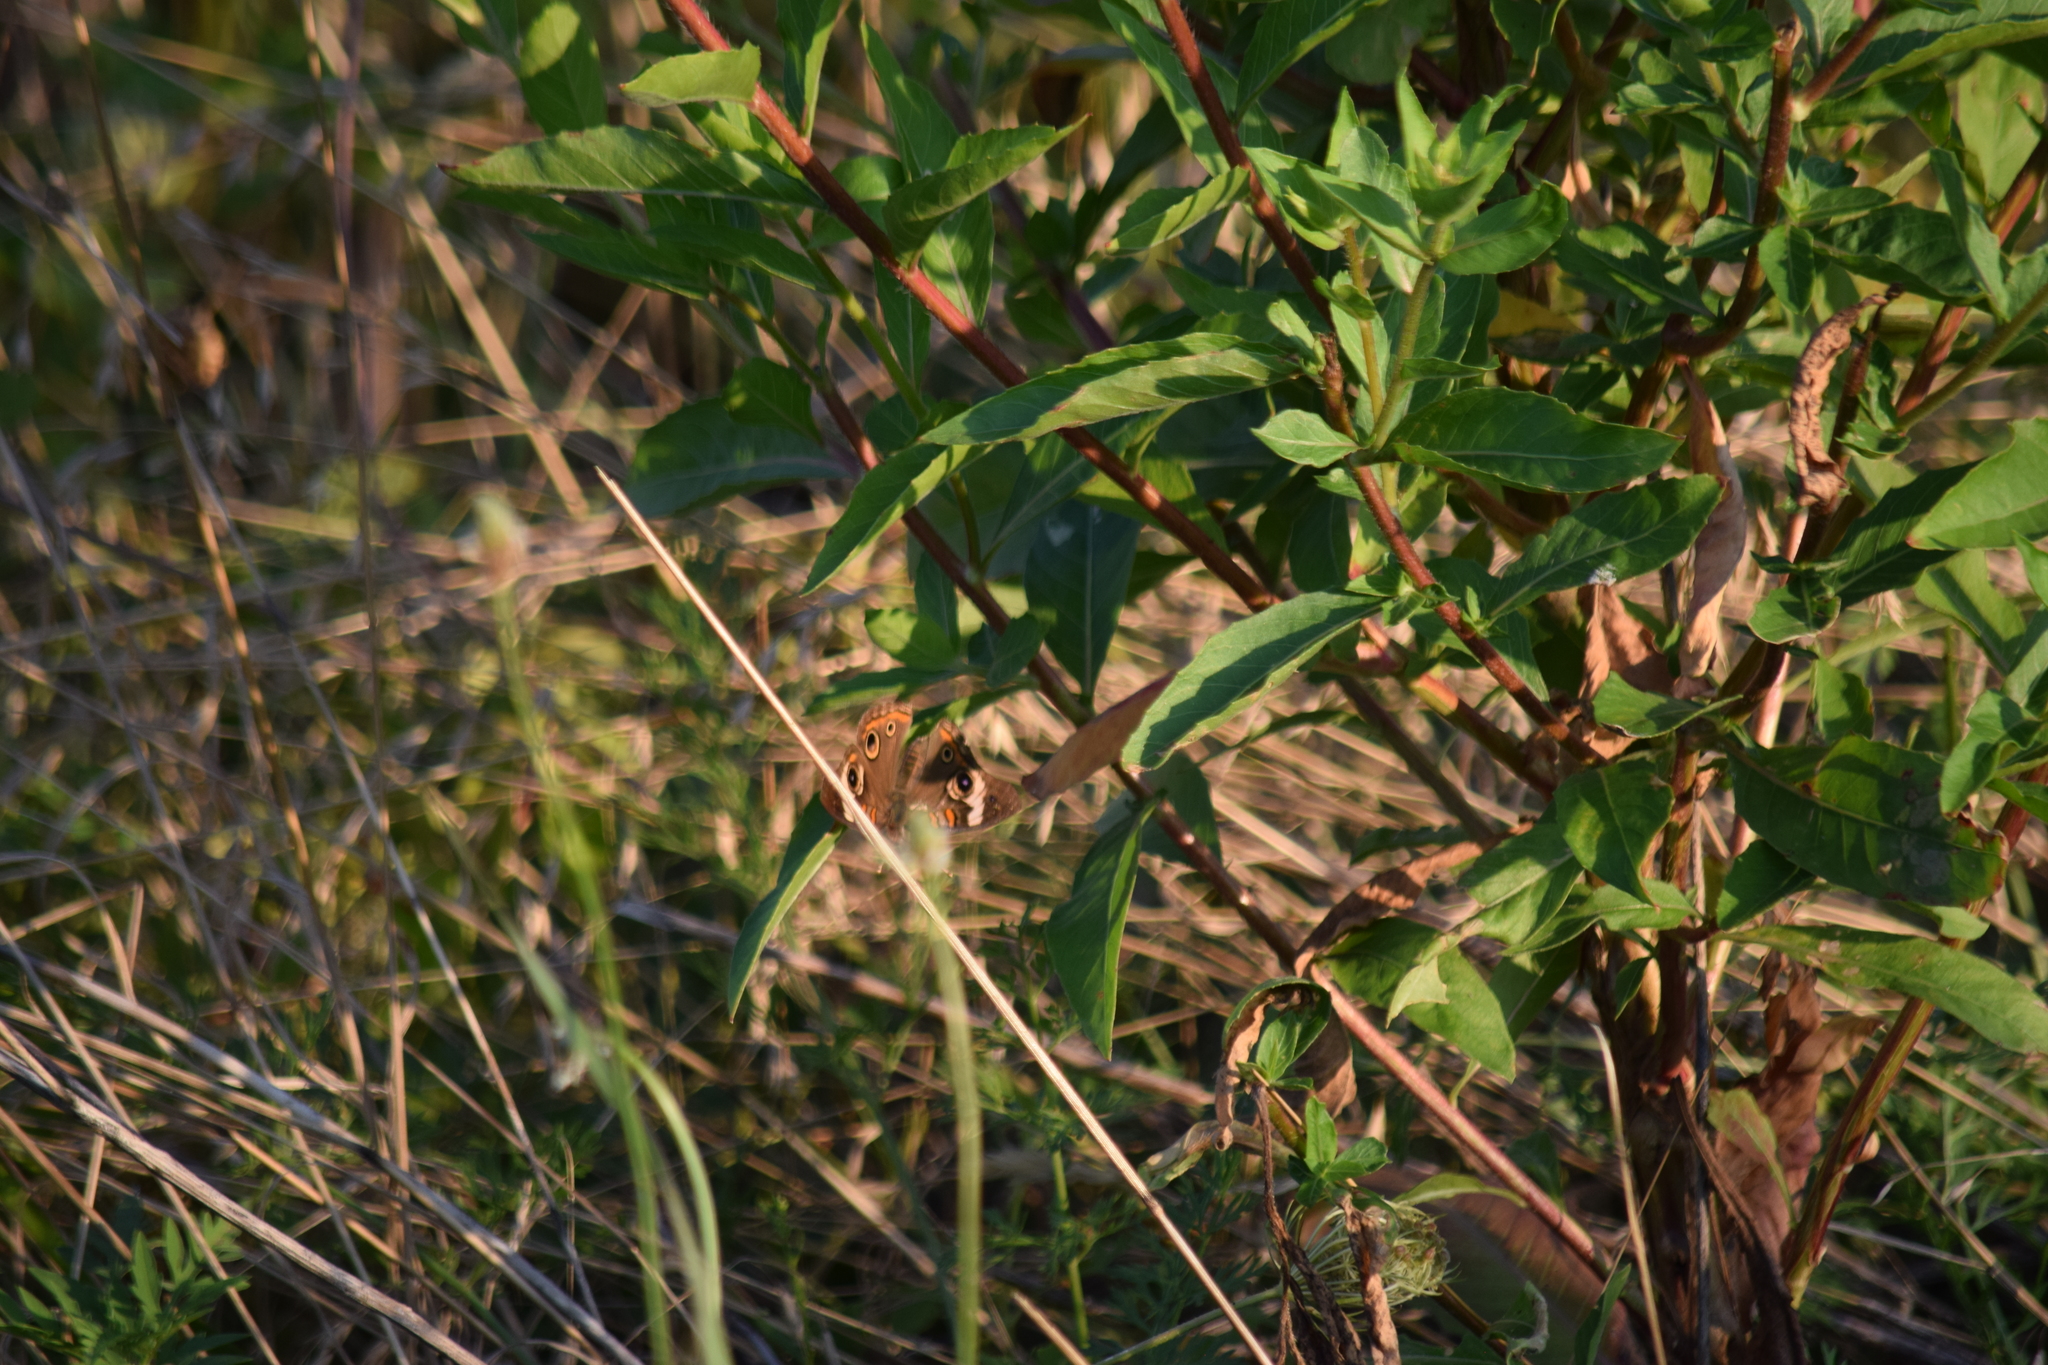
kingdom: Animalia
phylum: Arthropoda
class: Insecta
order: Lepidoptera
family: Nymphalidae
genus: Junonia
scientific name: Junonia coenia
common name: Common buckeye
